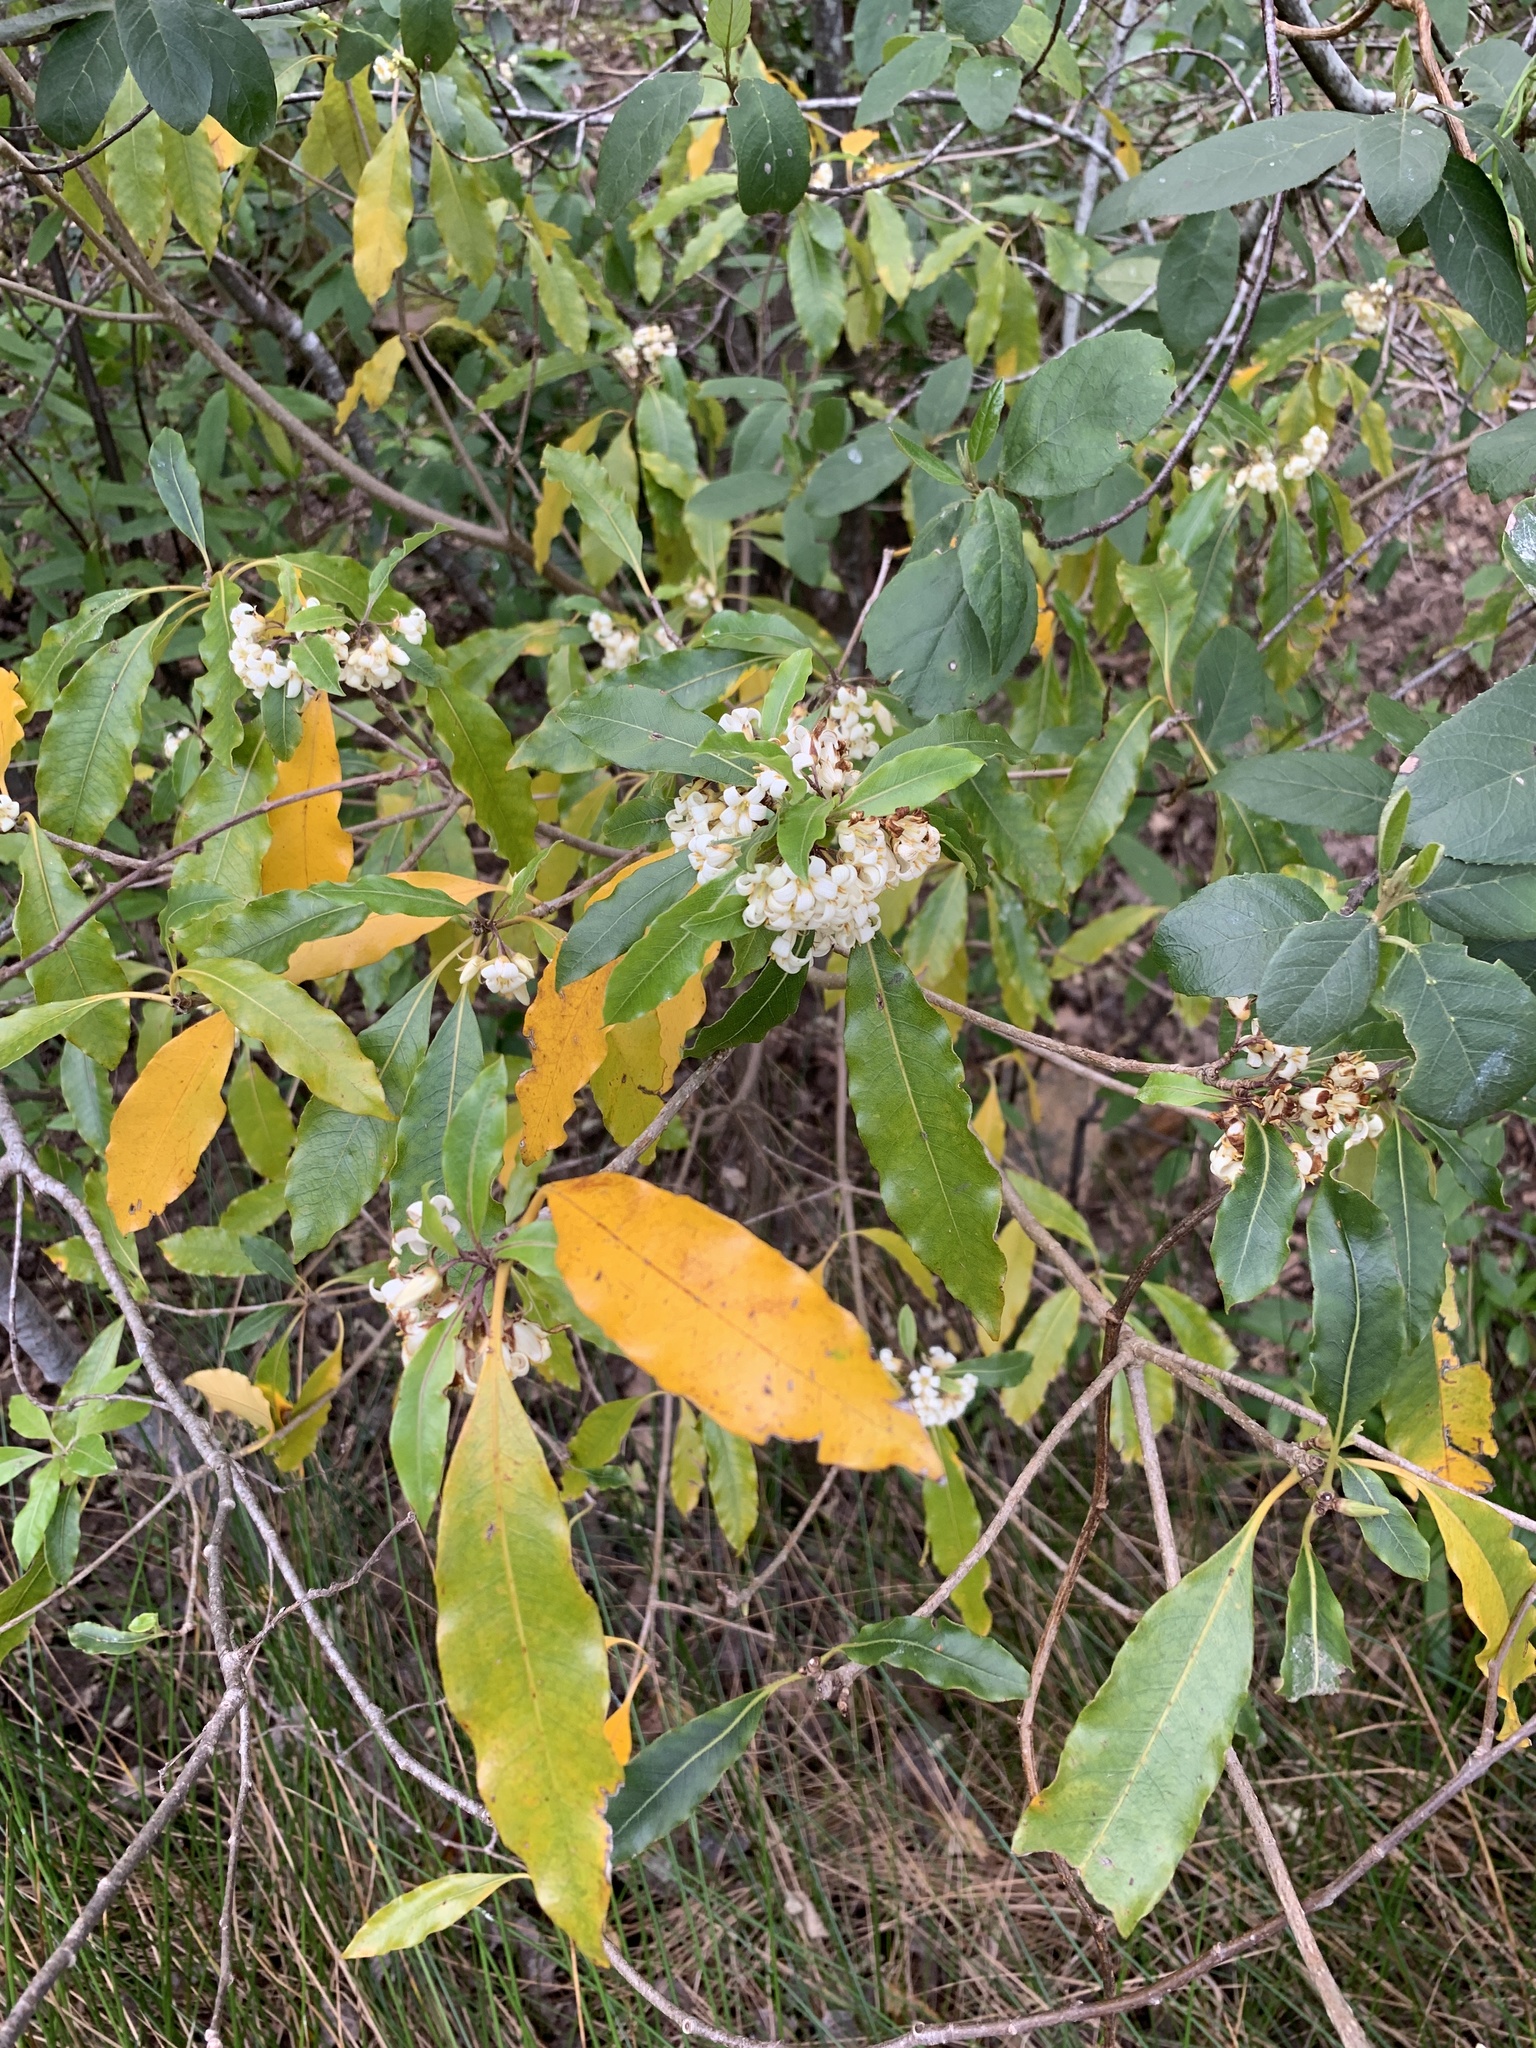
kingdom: Plantae
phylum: Tracheophyta
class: Magnoliopsida
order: Apiales
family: Pittosporaceae
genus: Pittosporum
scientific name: Pittosporum undulatum
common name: Australian cheesewood
